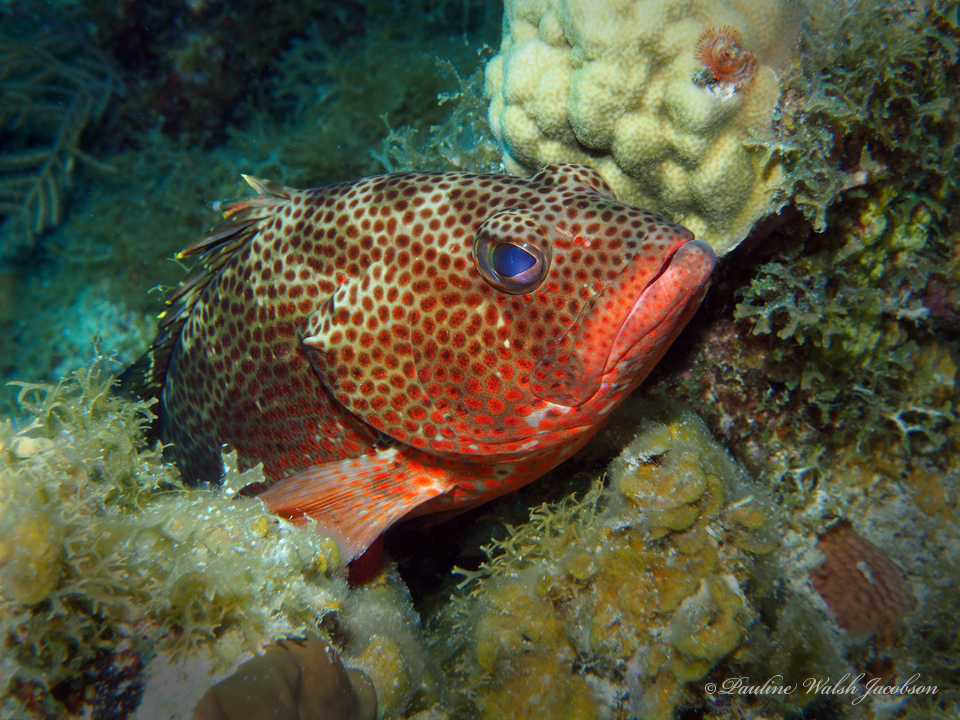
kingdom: Animalia
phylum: Chordata
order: Perciformes
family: Serranidae
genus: Epinephelus
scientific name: Epinephelus guttatus
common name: Red hind
